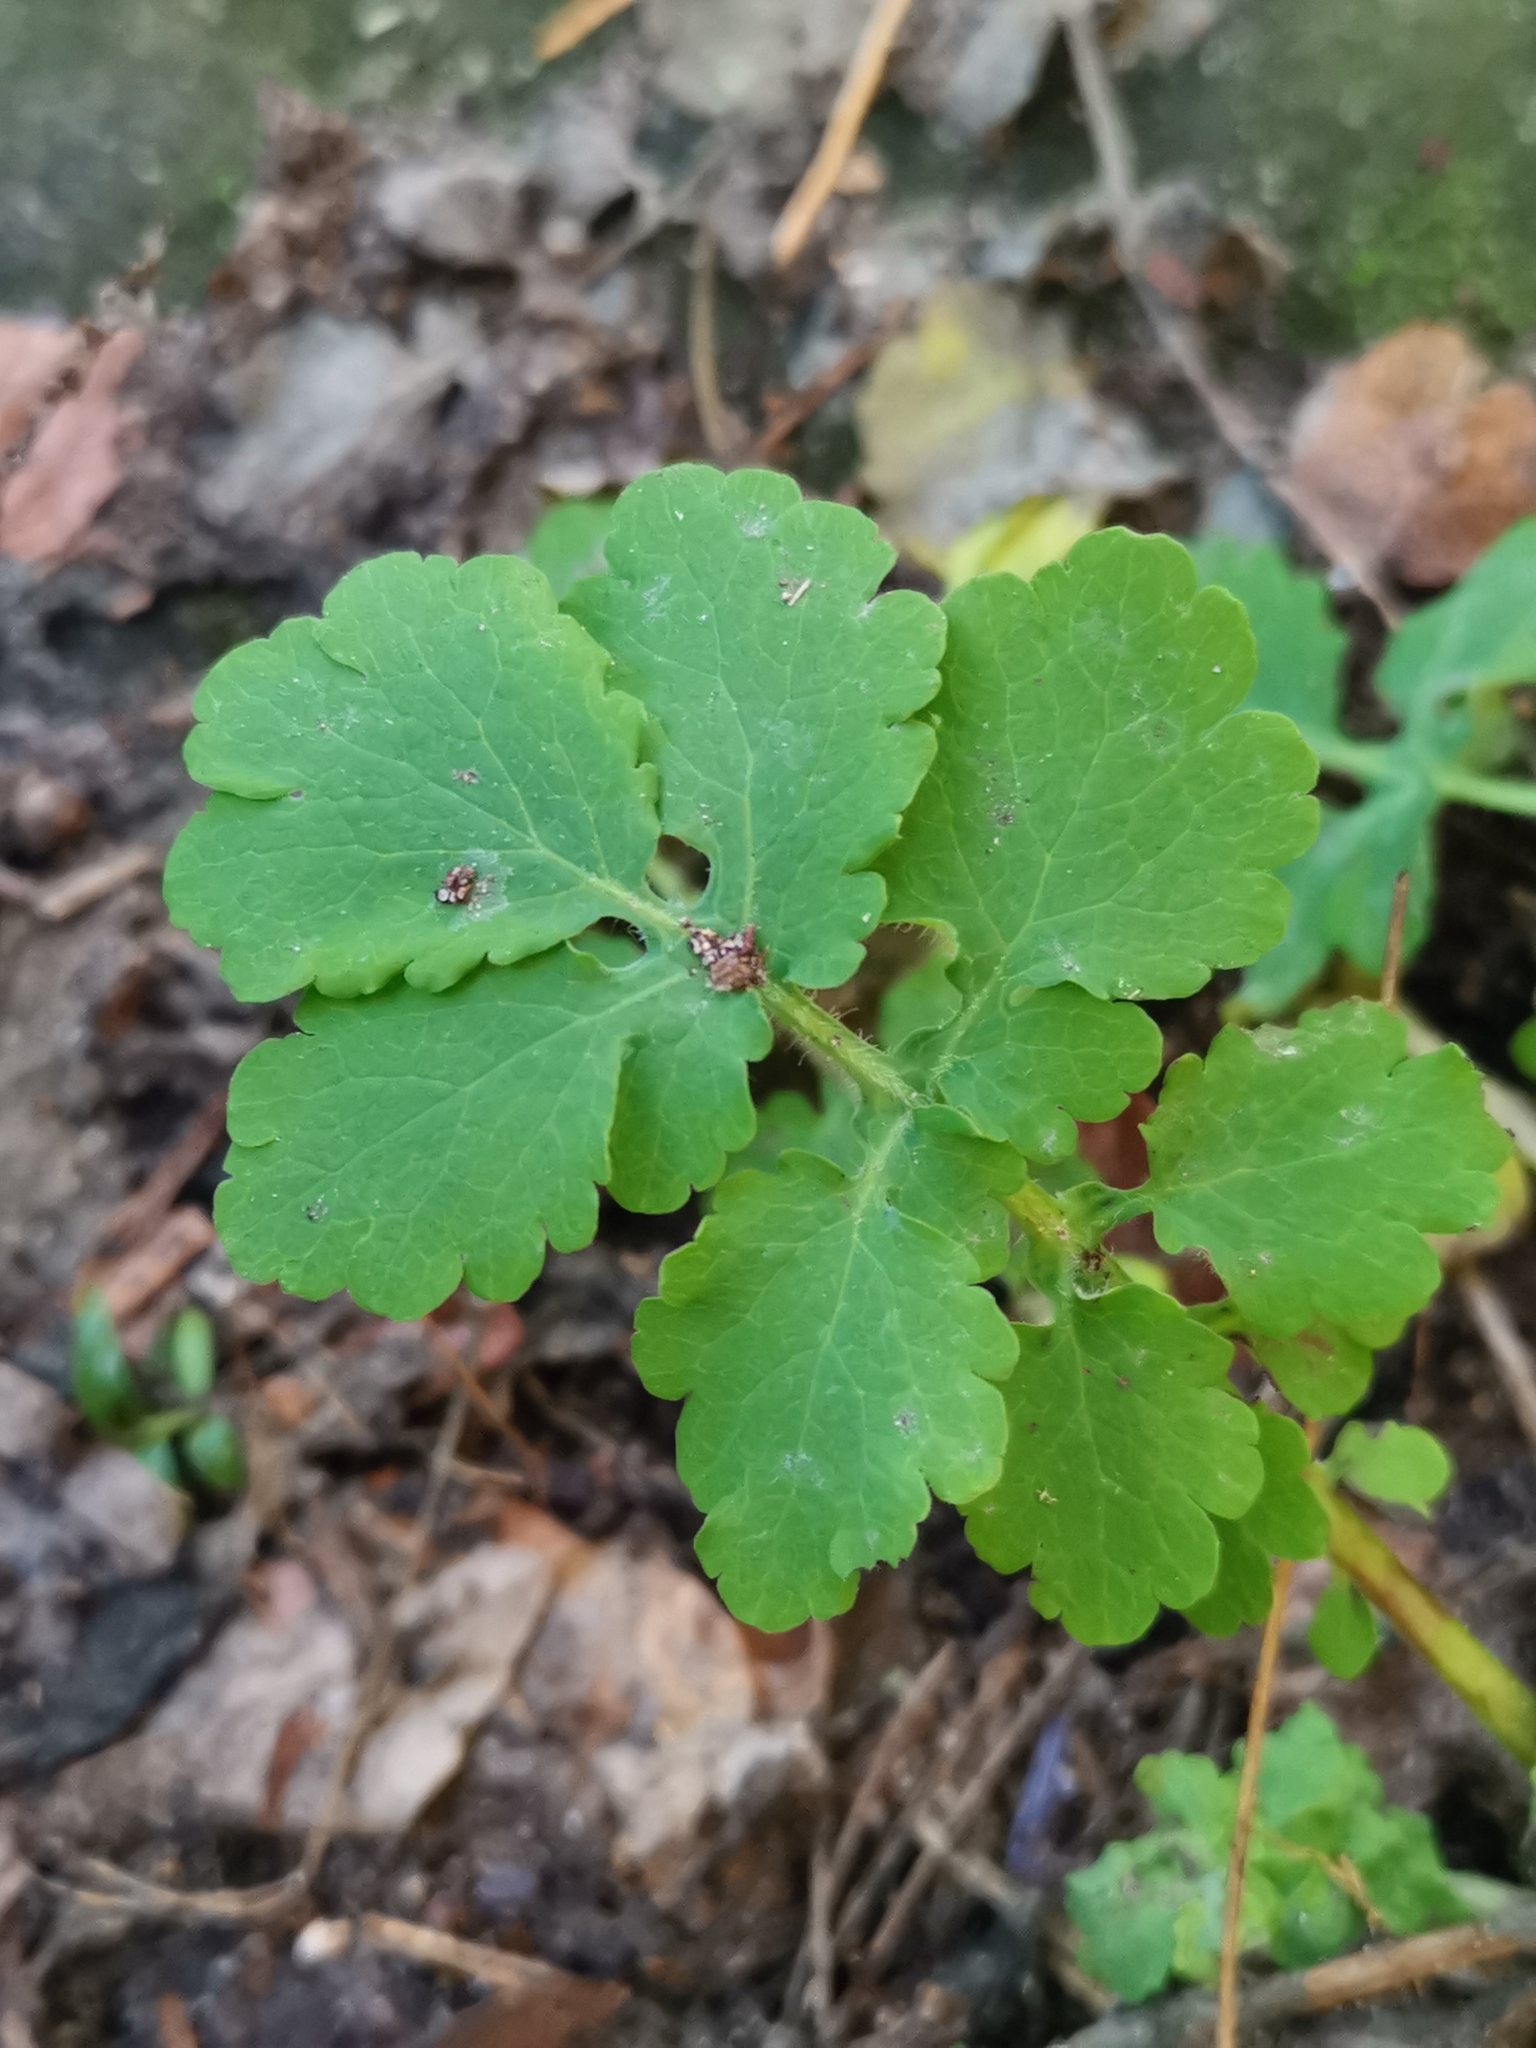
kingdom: Plantae
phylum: Tracheophyta
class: Magnoliopsida
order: Ranunculales
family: Papaveraceae
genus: Chelidonium
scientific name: Chelidonium majus
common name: Greater celandine
